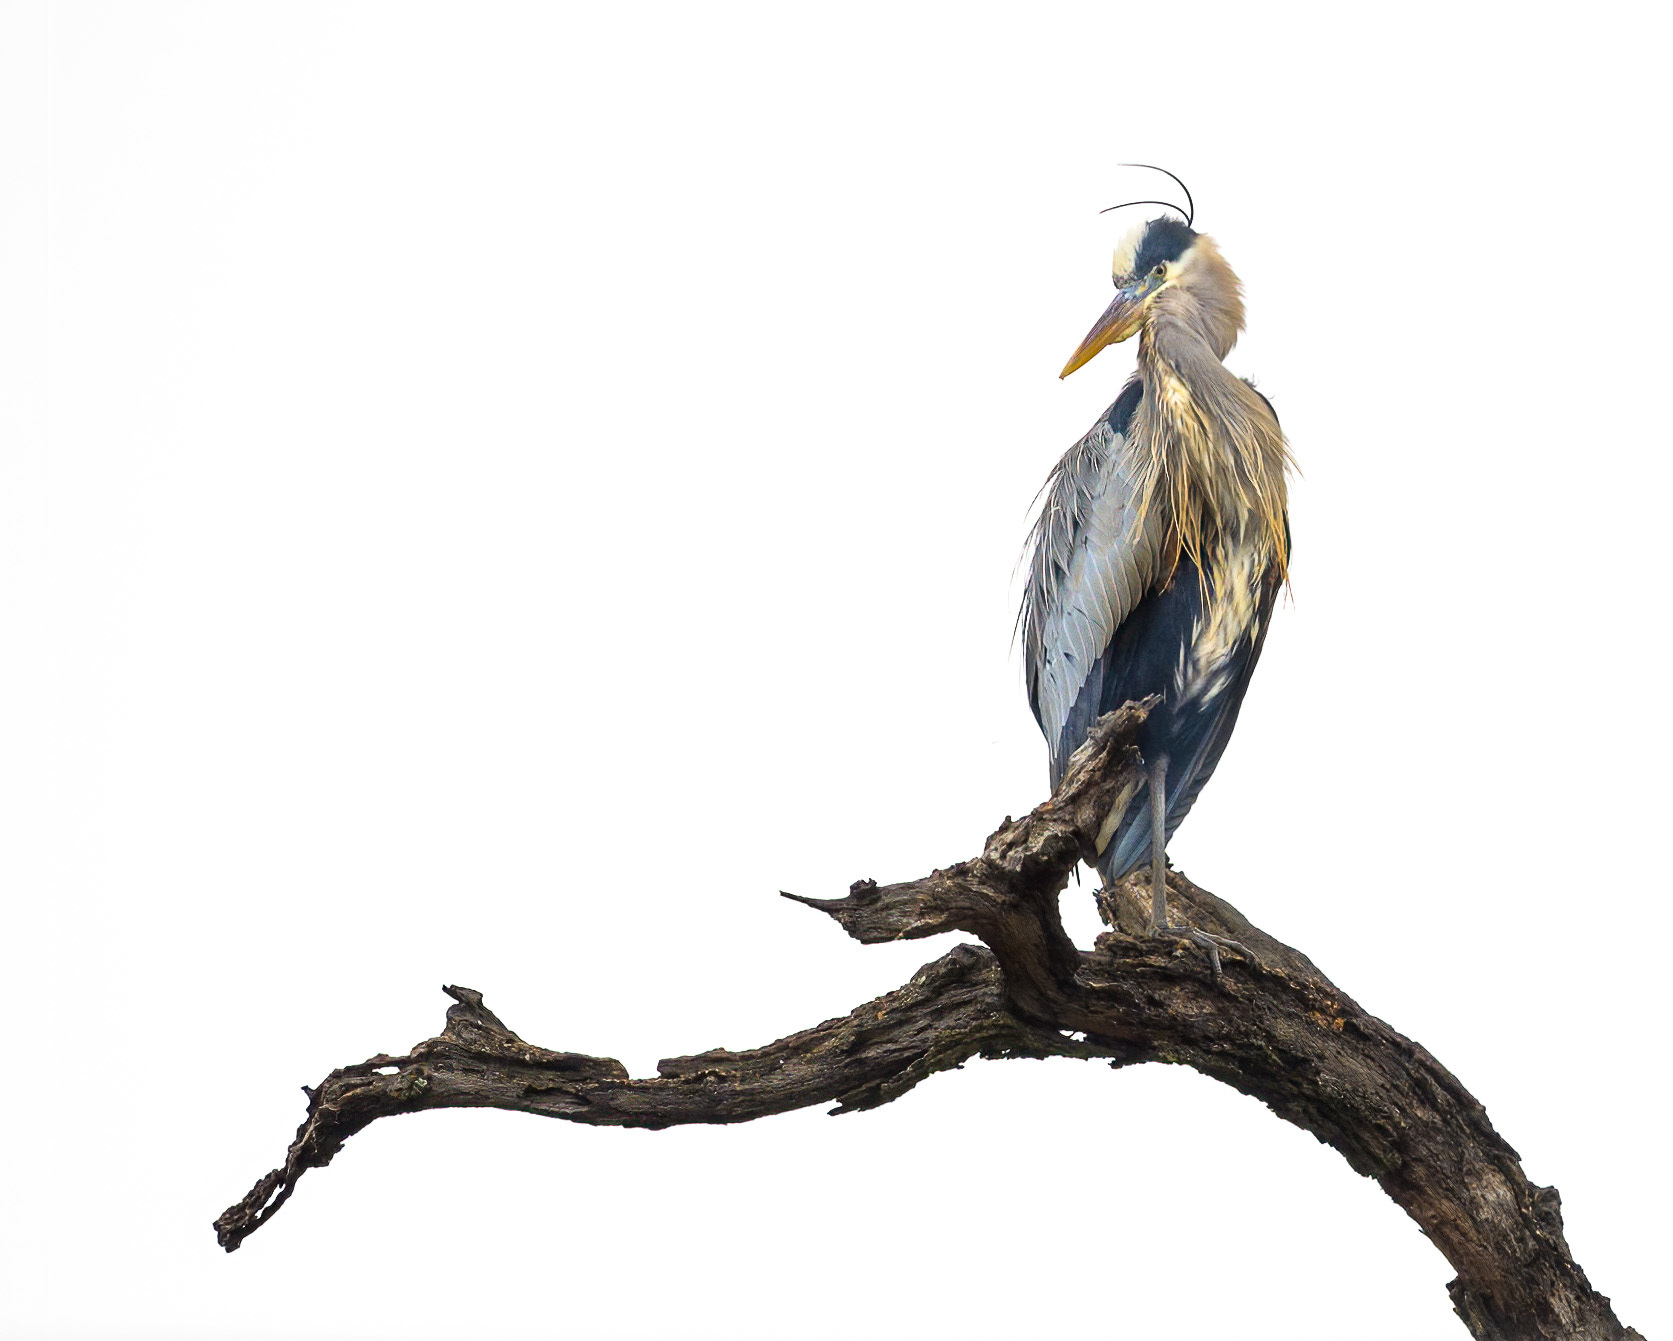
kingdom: Animalia
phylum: Chordata
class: Aves
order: Pelecaniformes
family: Ardeidae
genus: Ardea
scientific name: Ardea herodias
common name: Great blue heron
